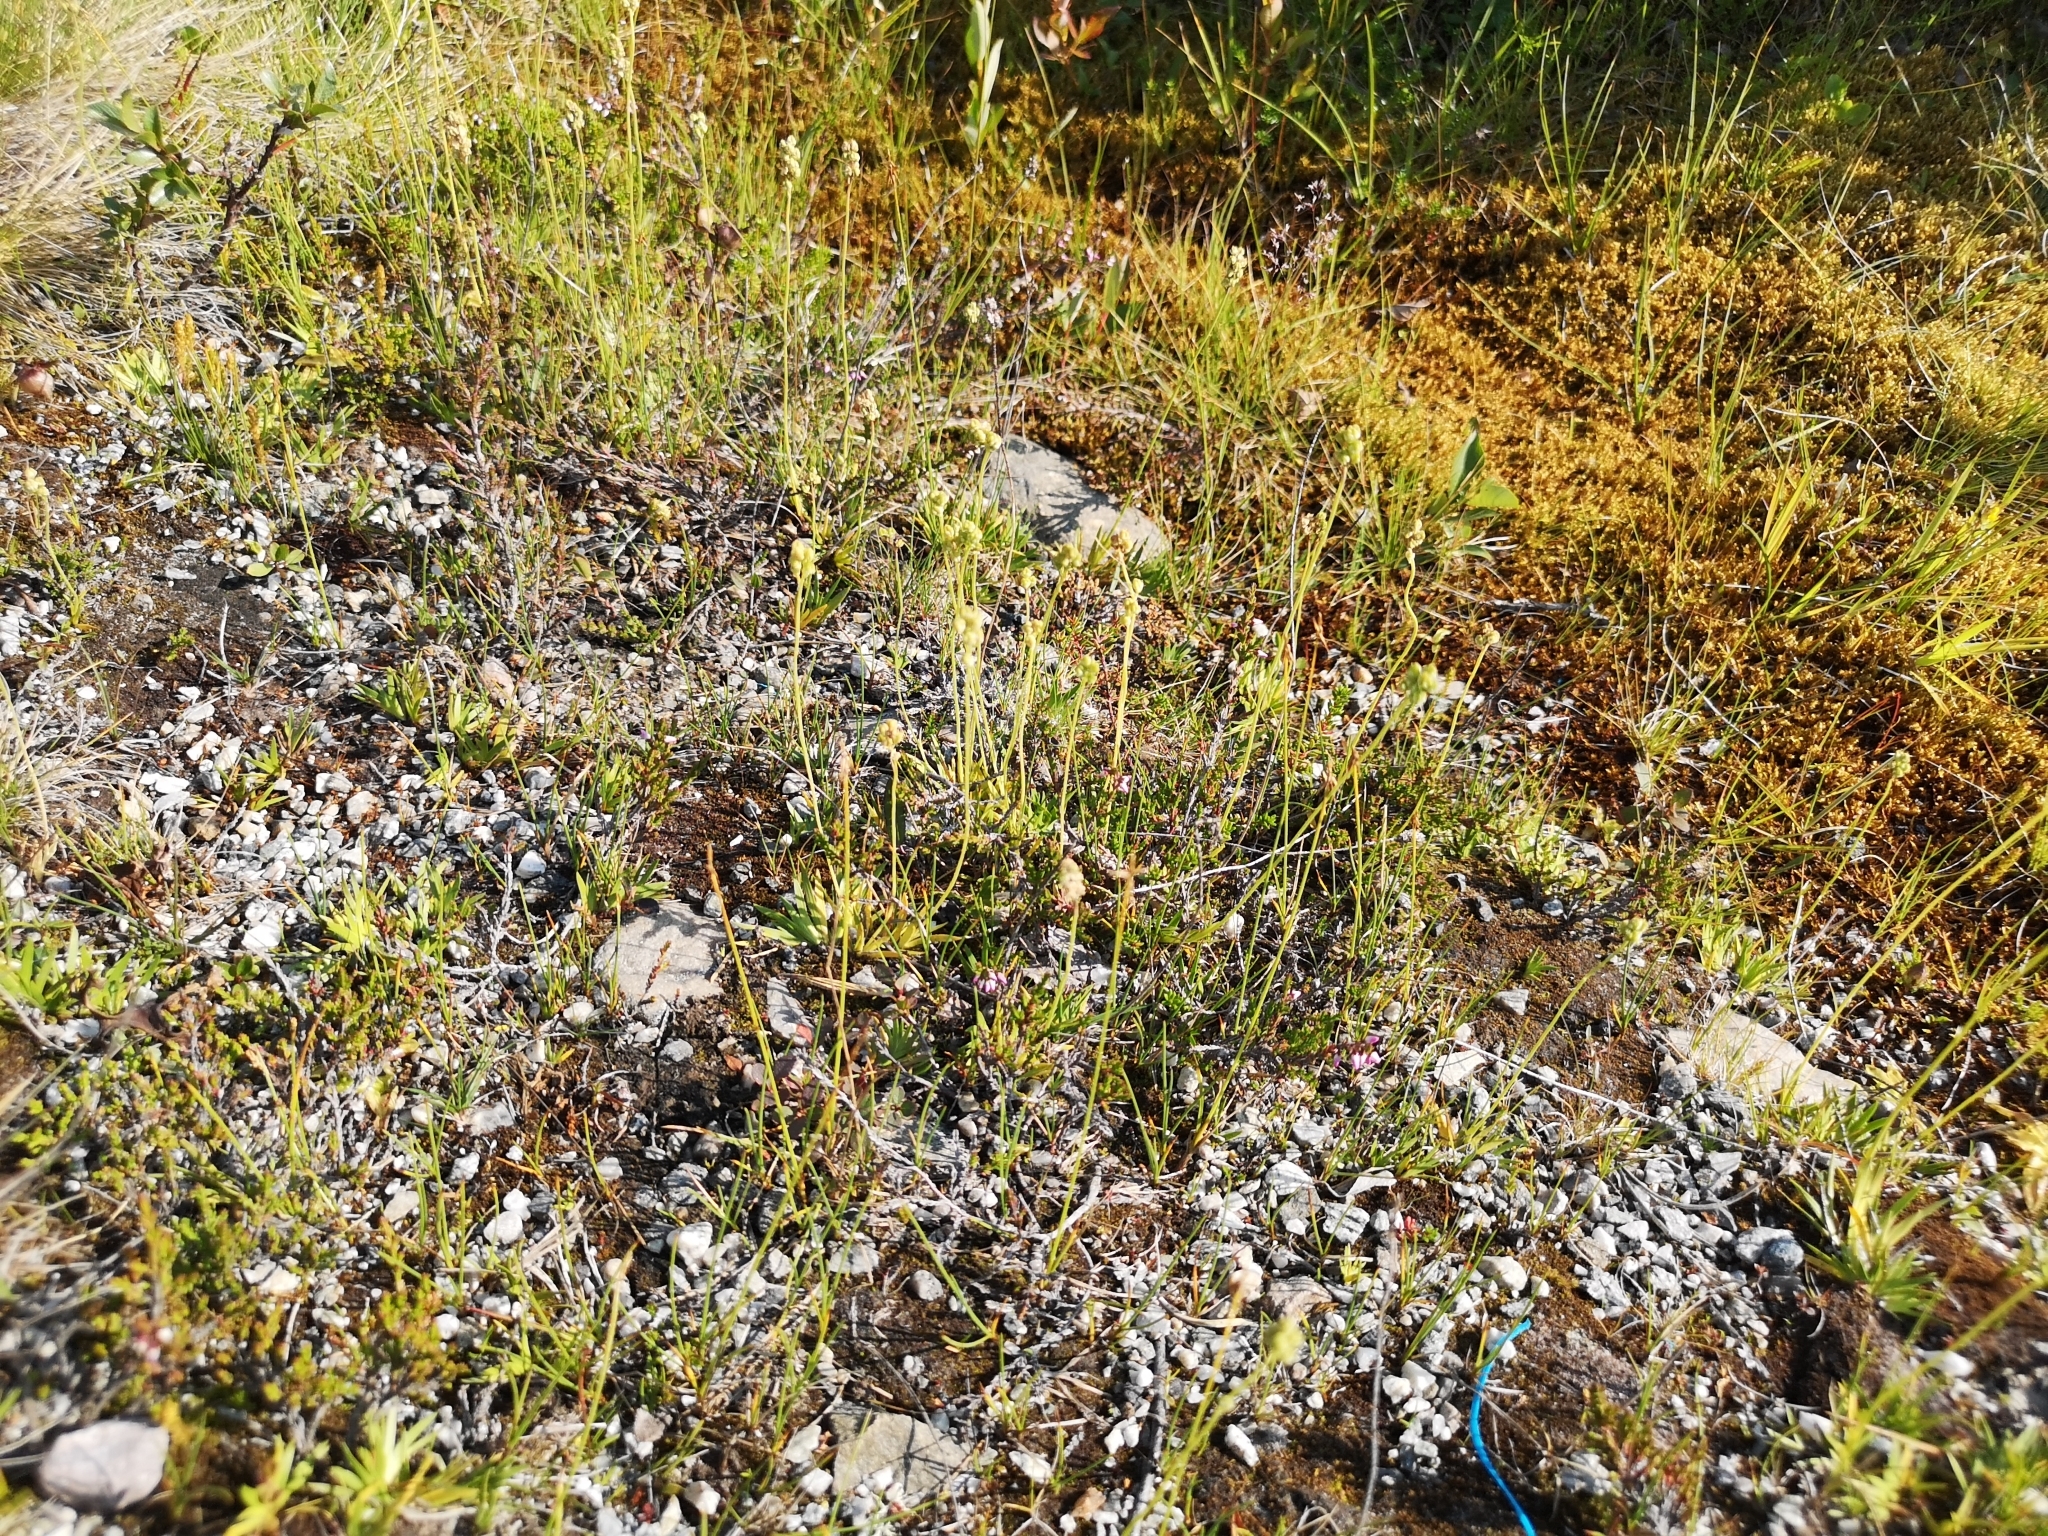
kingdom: Plantae
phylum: Tracheophyta
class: Liliopsida
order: Alismatales
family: Tofieldiaceae
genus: Tofieldia
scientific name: Tofieldia pusilla
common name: Scottish false asphodel
